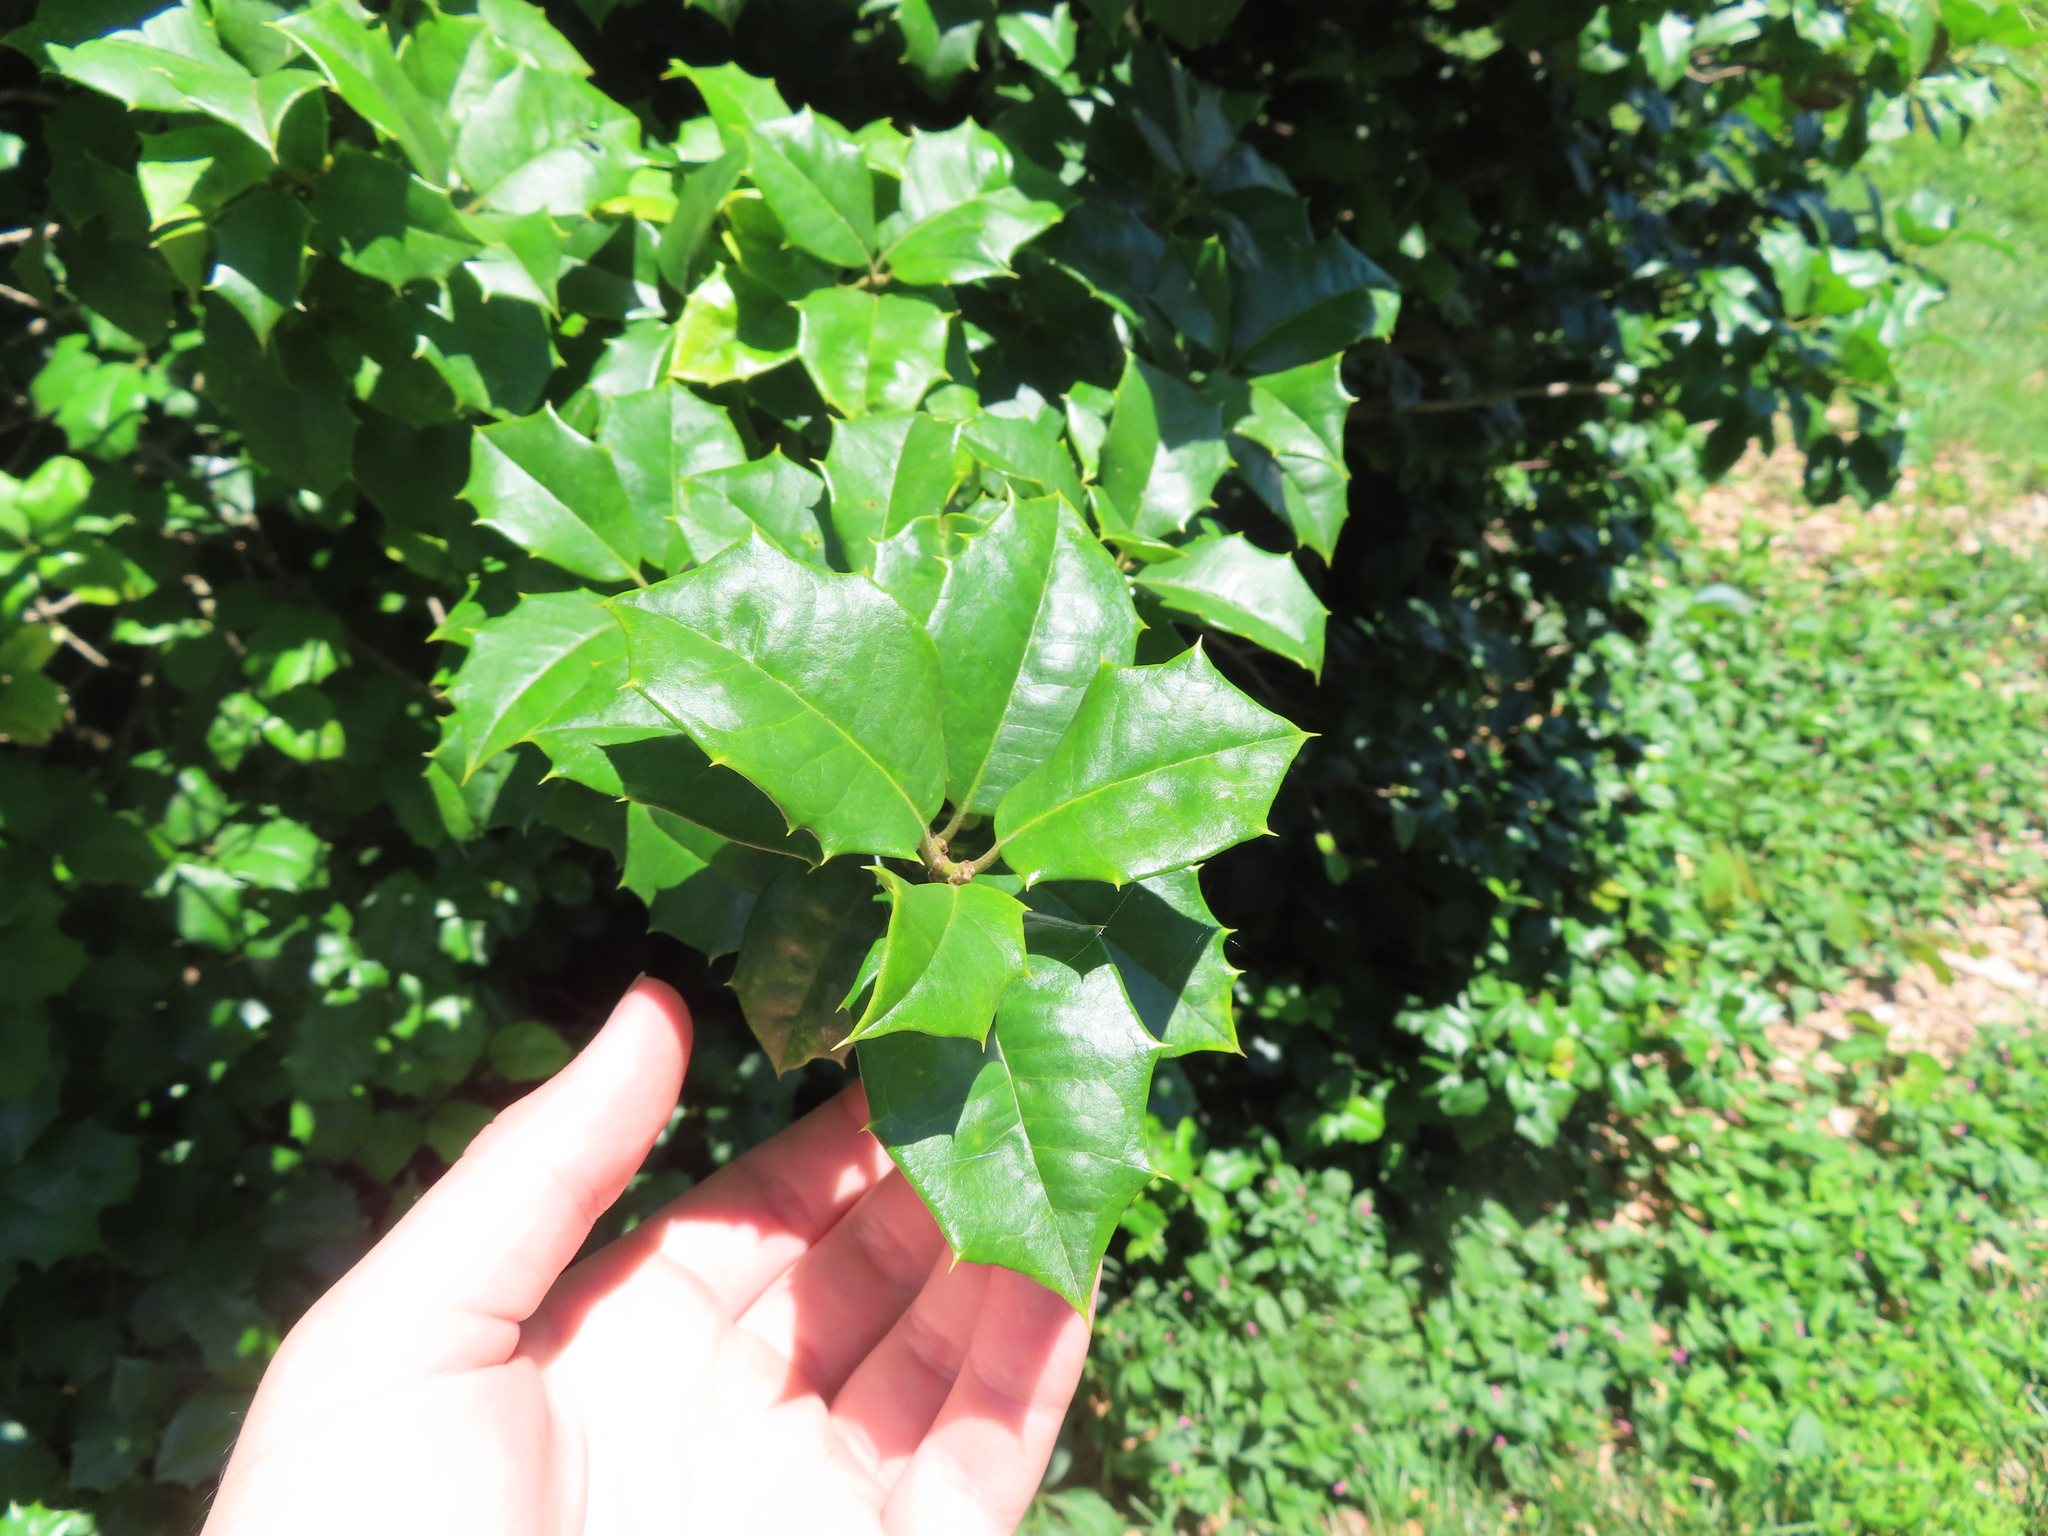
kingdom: Plantae
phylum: Tracheophyta
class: Magnoliopsida
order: Aquifoliales
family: Aquifoliaceae
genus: Ilex
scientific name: Ilex opaca
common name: American holly
